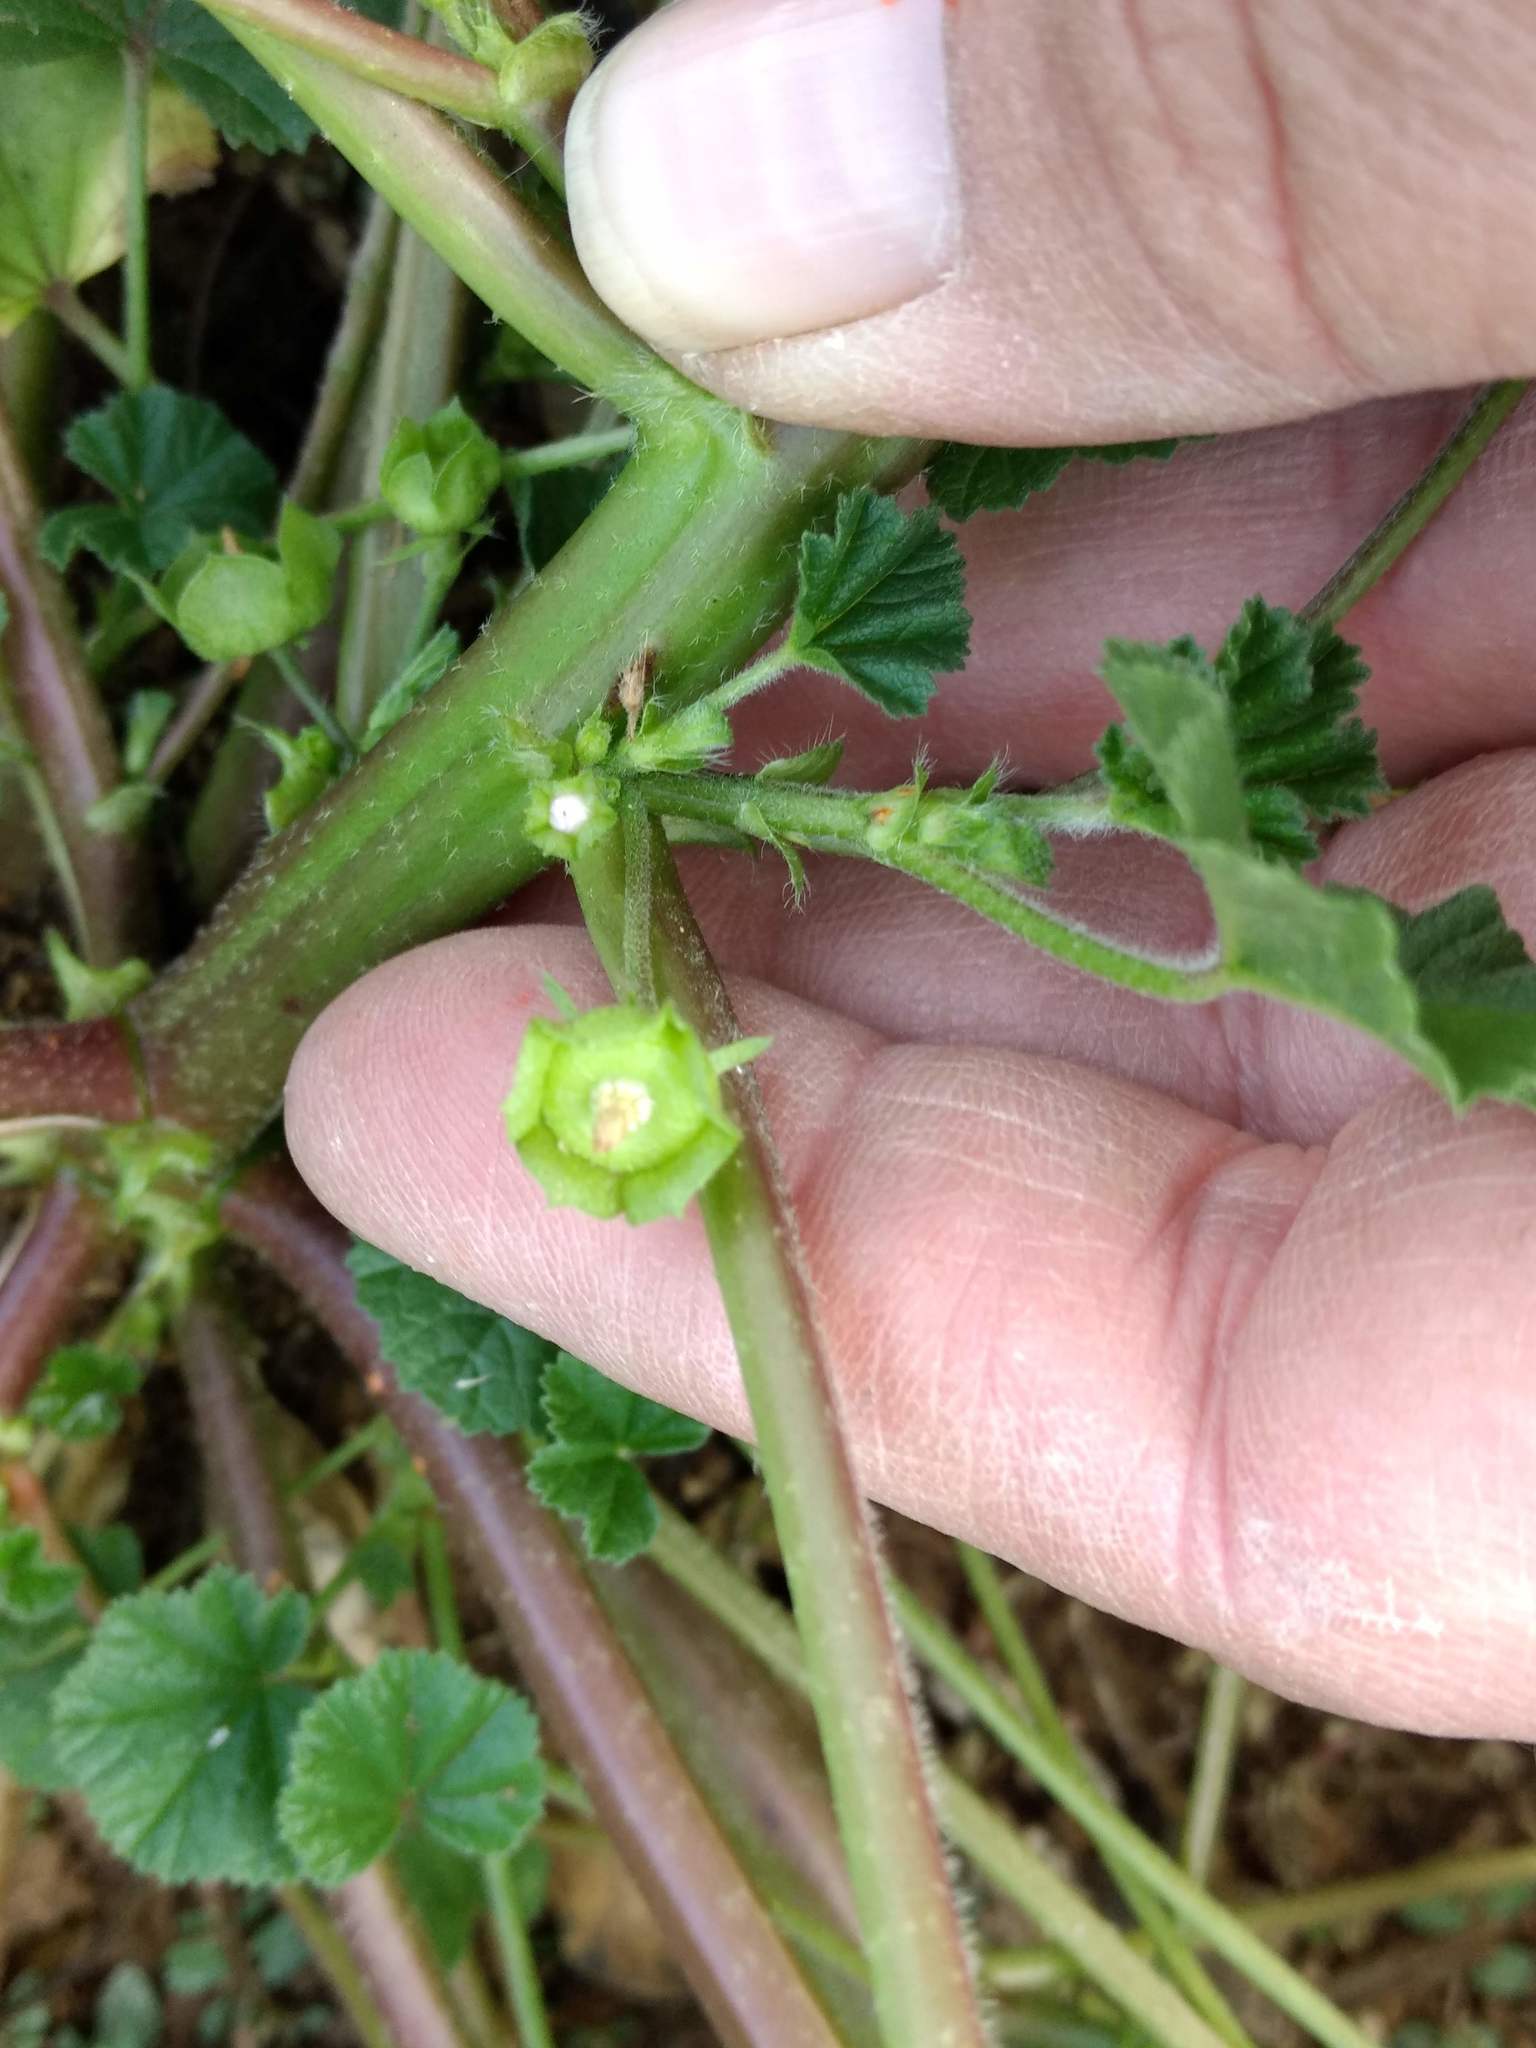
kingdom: Plantae
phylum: Tracheophyta
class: Magnoliopsida
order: Malvales
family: Malvaceae
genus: Malva
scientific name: Malva parviflora
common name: Least mallow
